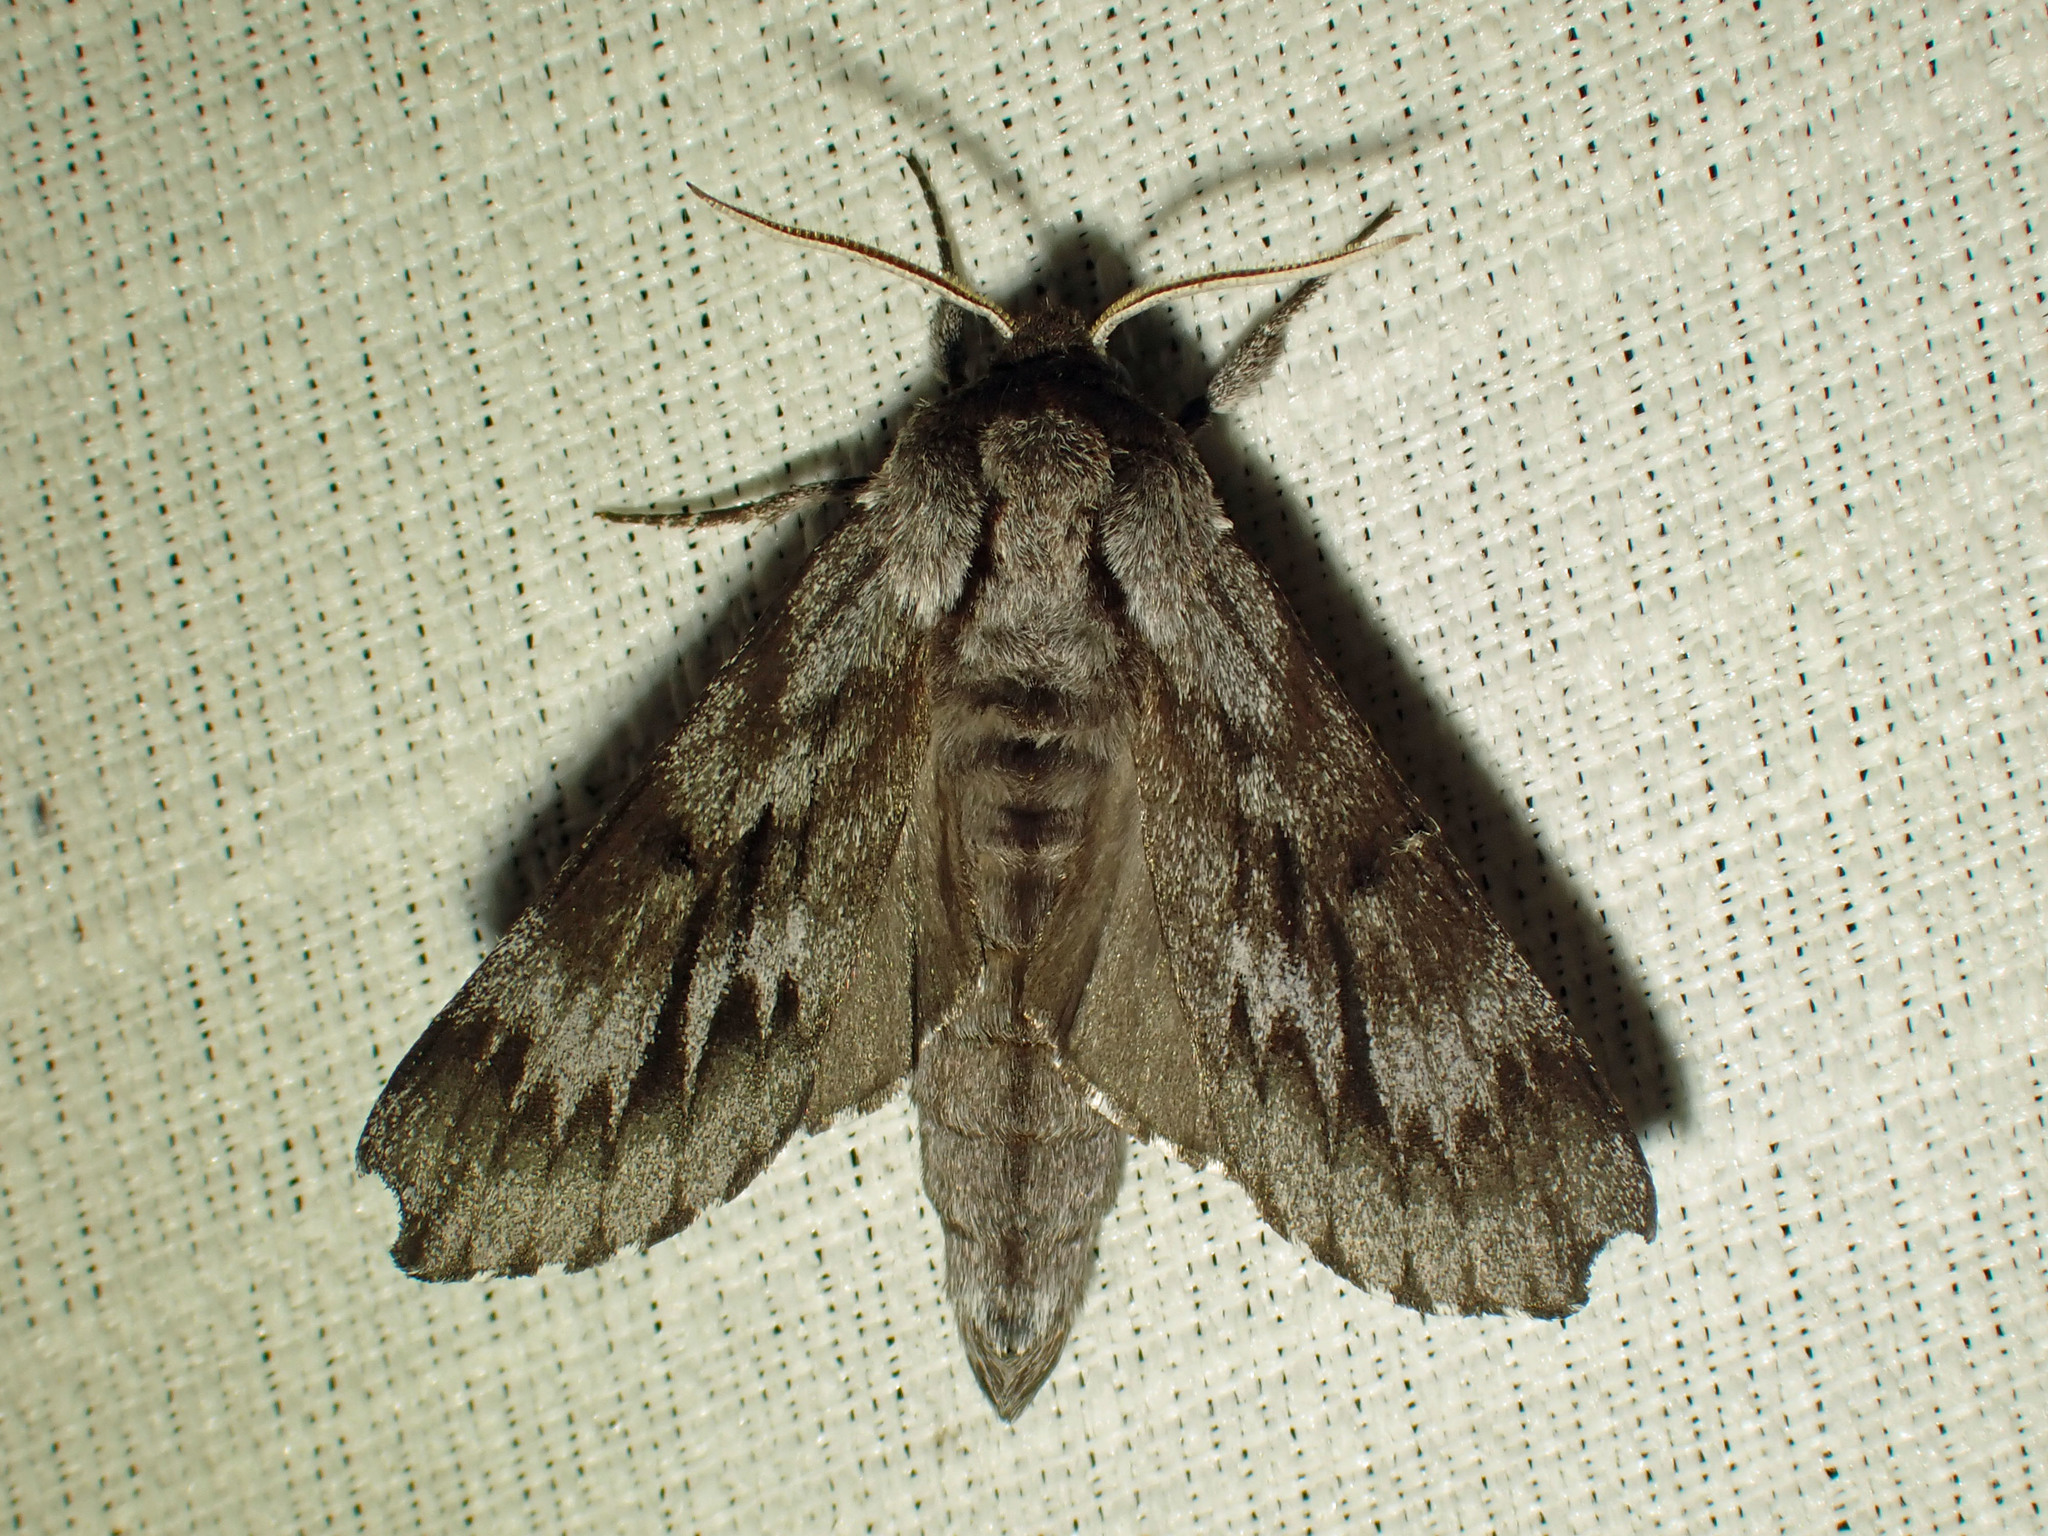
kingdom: Animalia
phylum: Arthropoda
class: Insecta
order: Lepidoptera
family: Sphingidae
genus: Lapara
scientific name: Lapara bombycoides
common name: Northern pine sphinx
